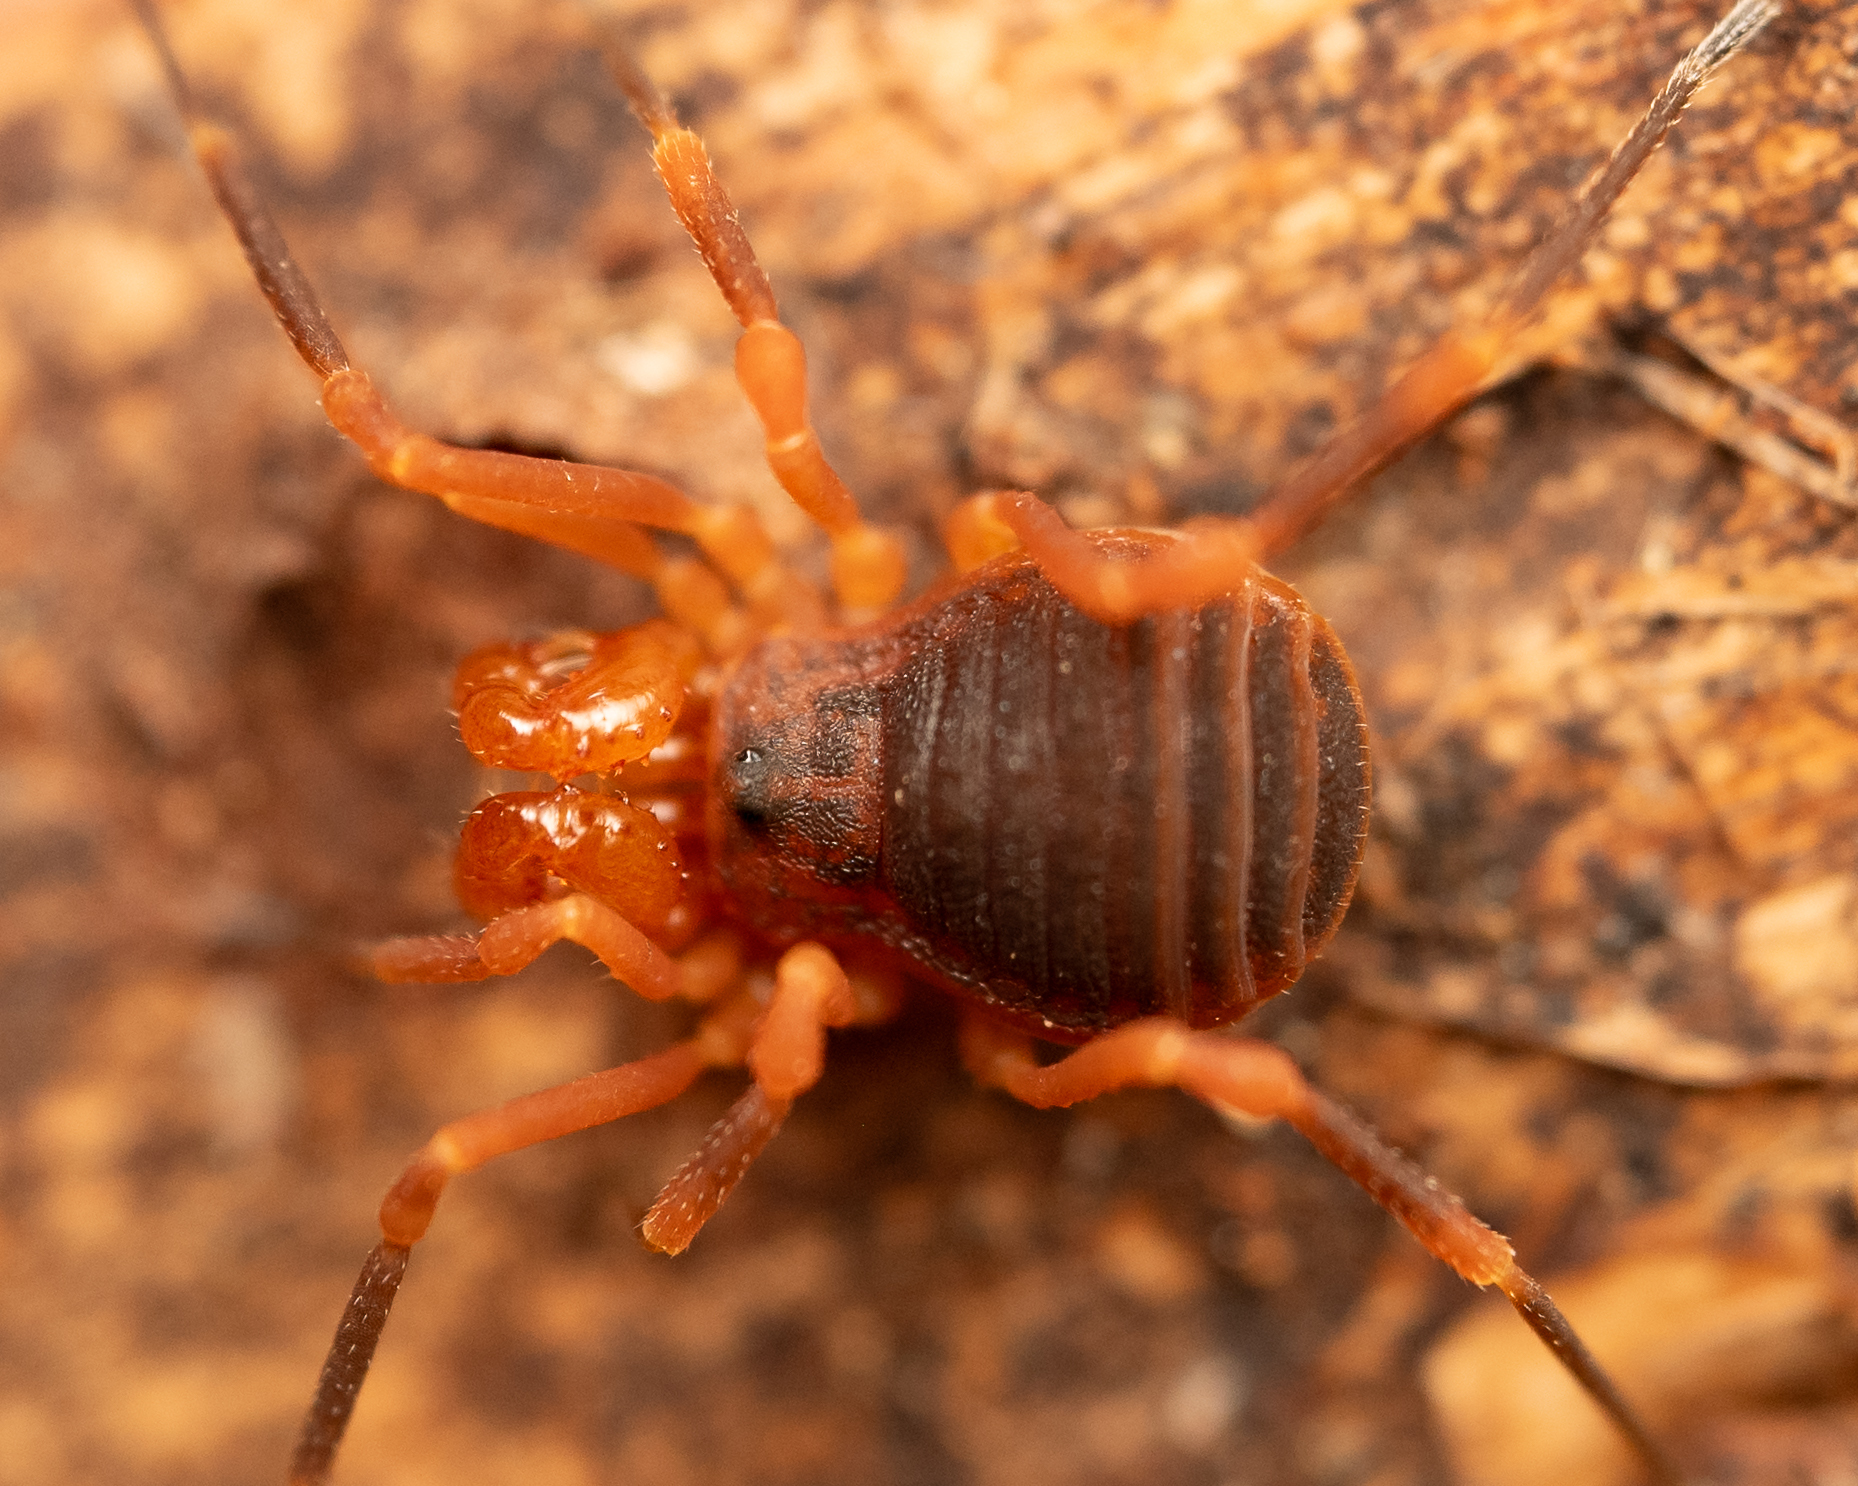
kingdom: Animalia
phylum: Arthropoda
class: Arachnida
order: Opiliones
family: Paranonychidae
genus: Sclerobunus
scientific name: Sclerobunus idahoensis
